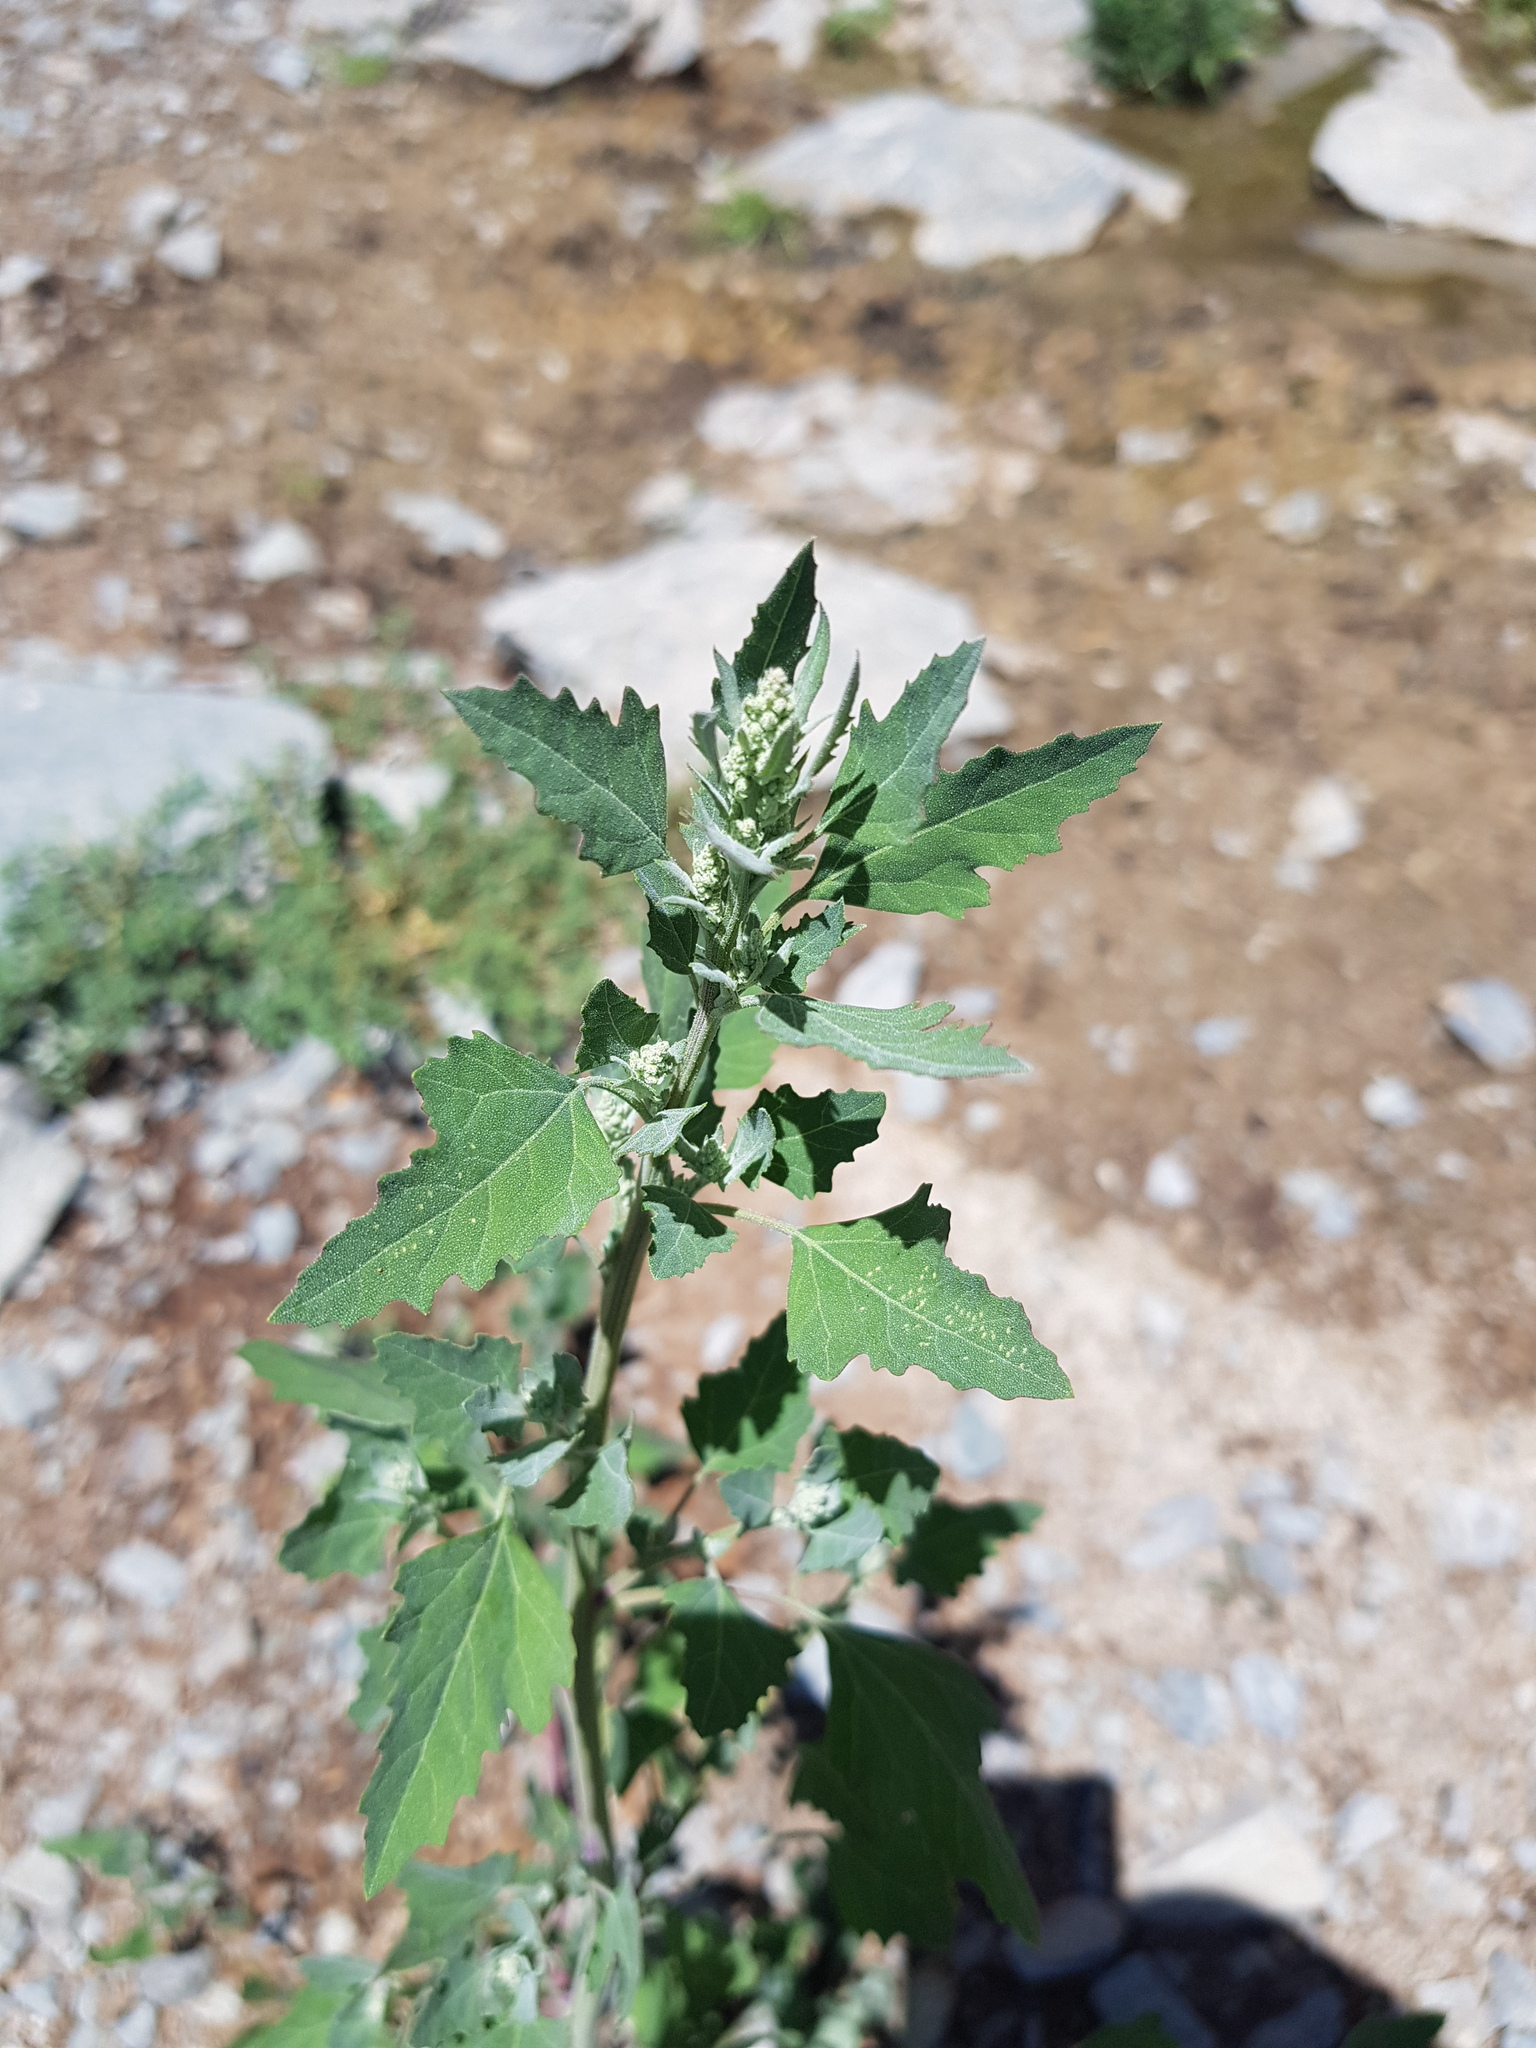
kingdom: Plantae
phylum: Tracheophyta
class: Magnoliopsida
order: Caryophyllales
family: Amaranthaceae
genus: Chenopodium
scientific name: Chenopodium album
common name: Fat-hen
